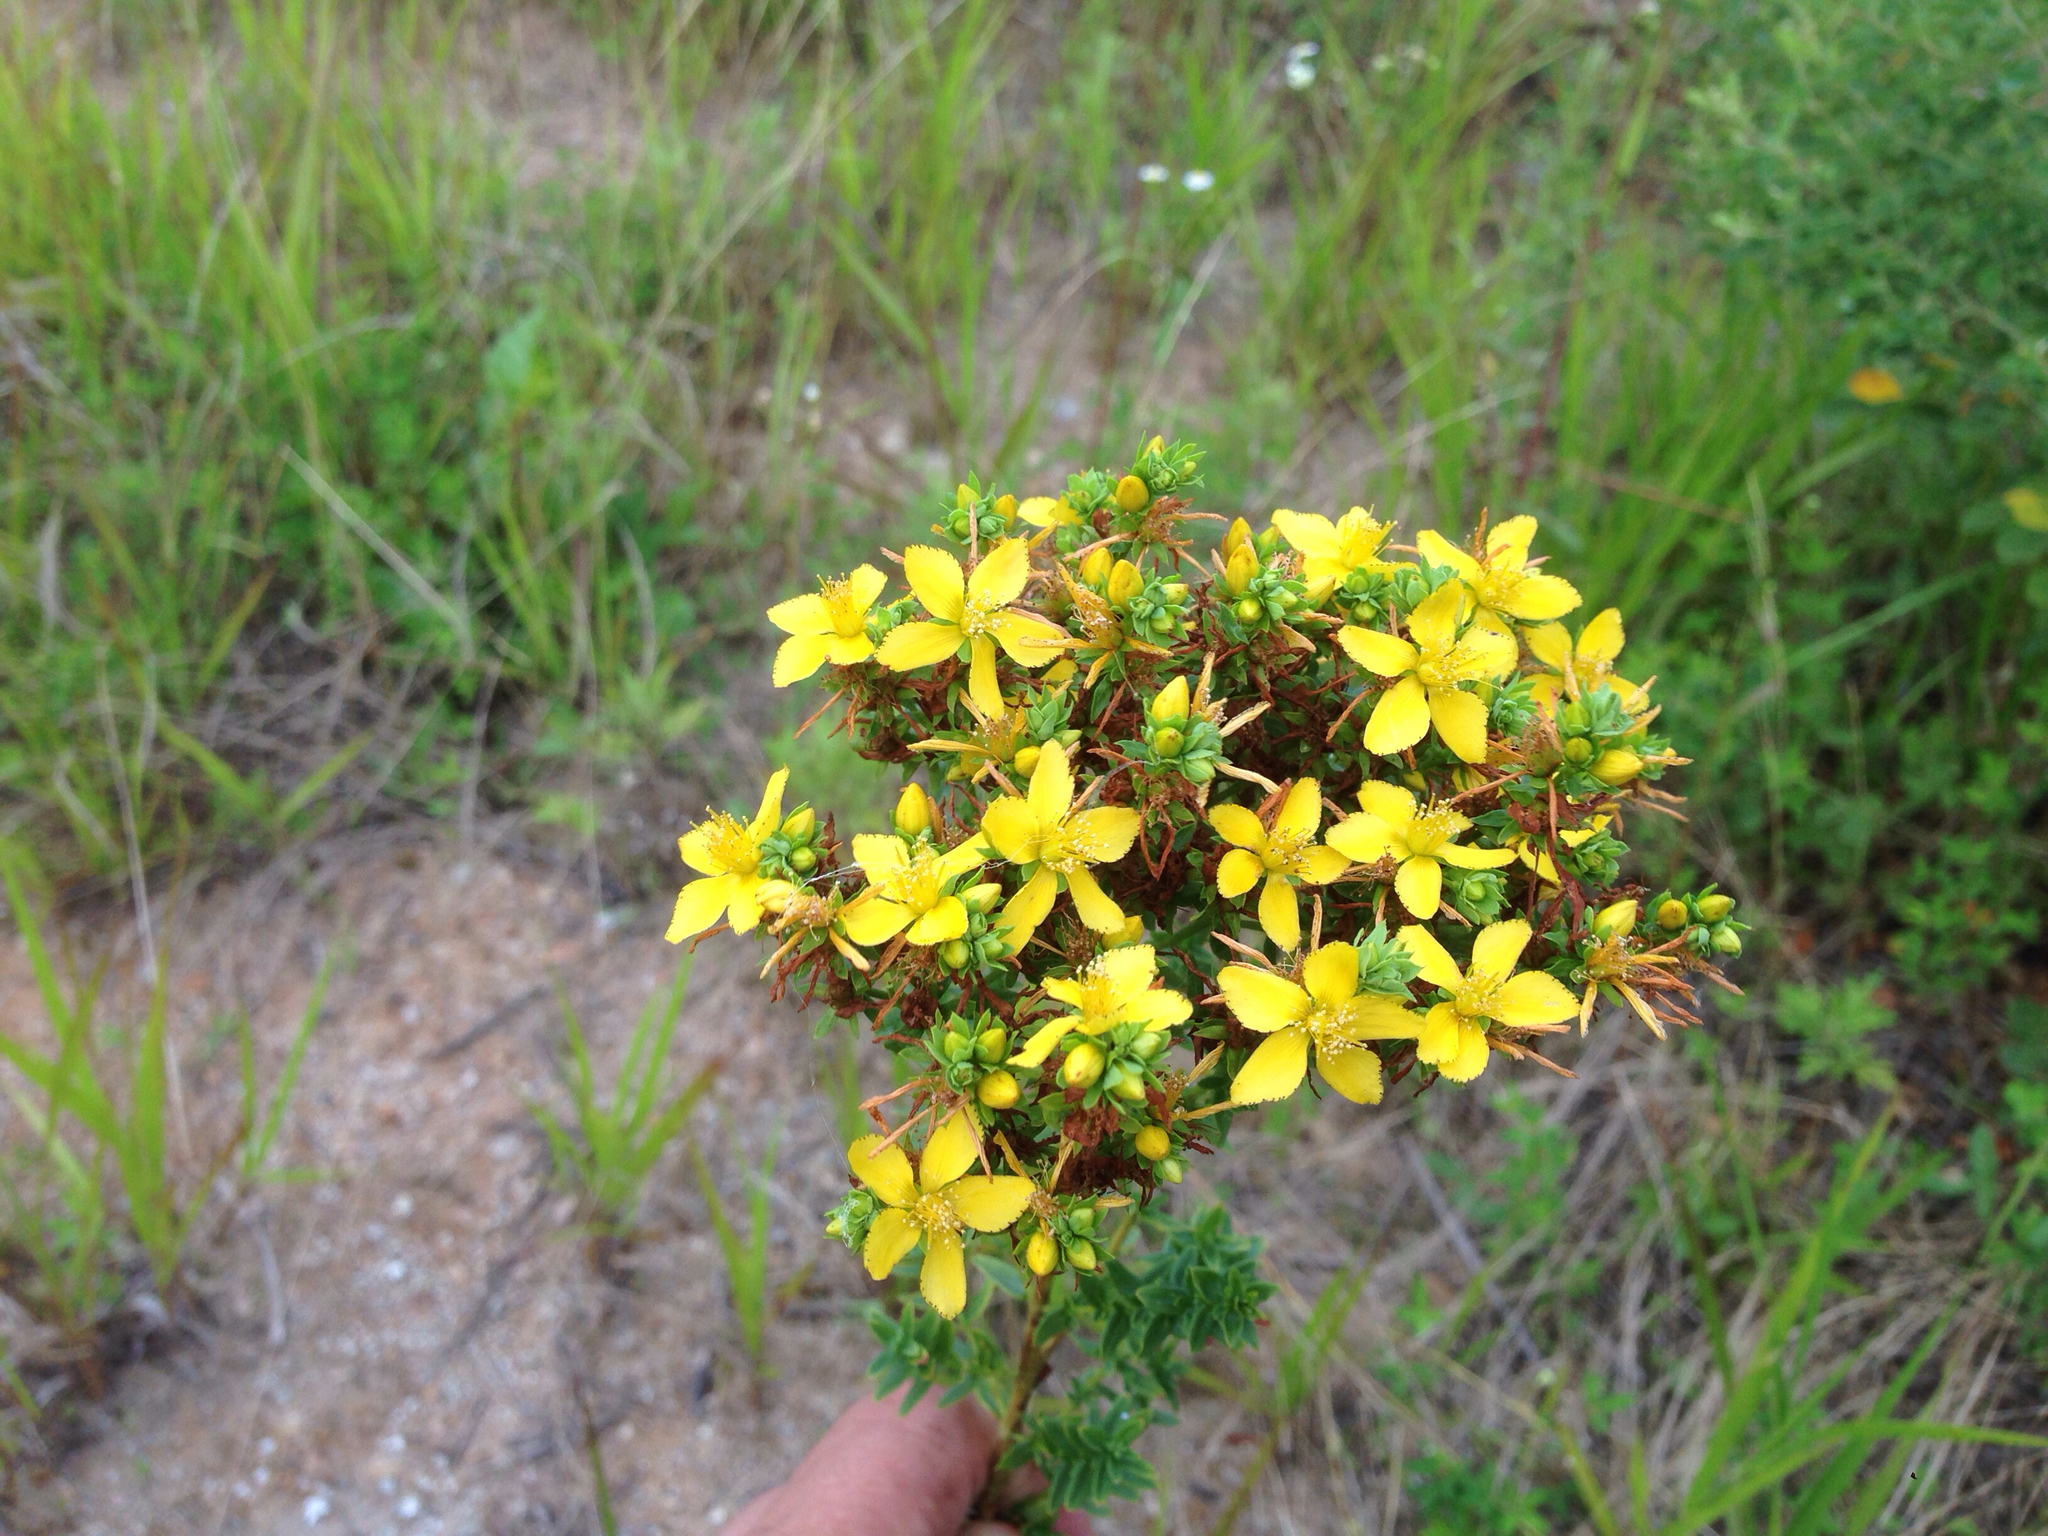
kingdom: Plantae
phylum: Tracheophyta
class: Magnoliopsida
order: Malpighiales
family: Hypericaceae
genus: Hypericum
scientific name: Hypericum erectum
